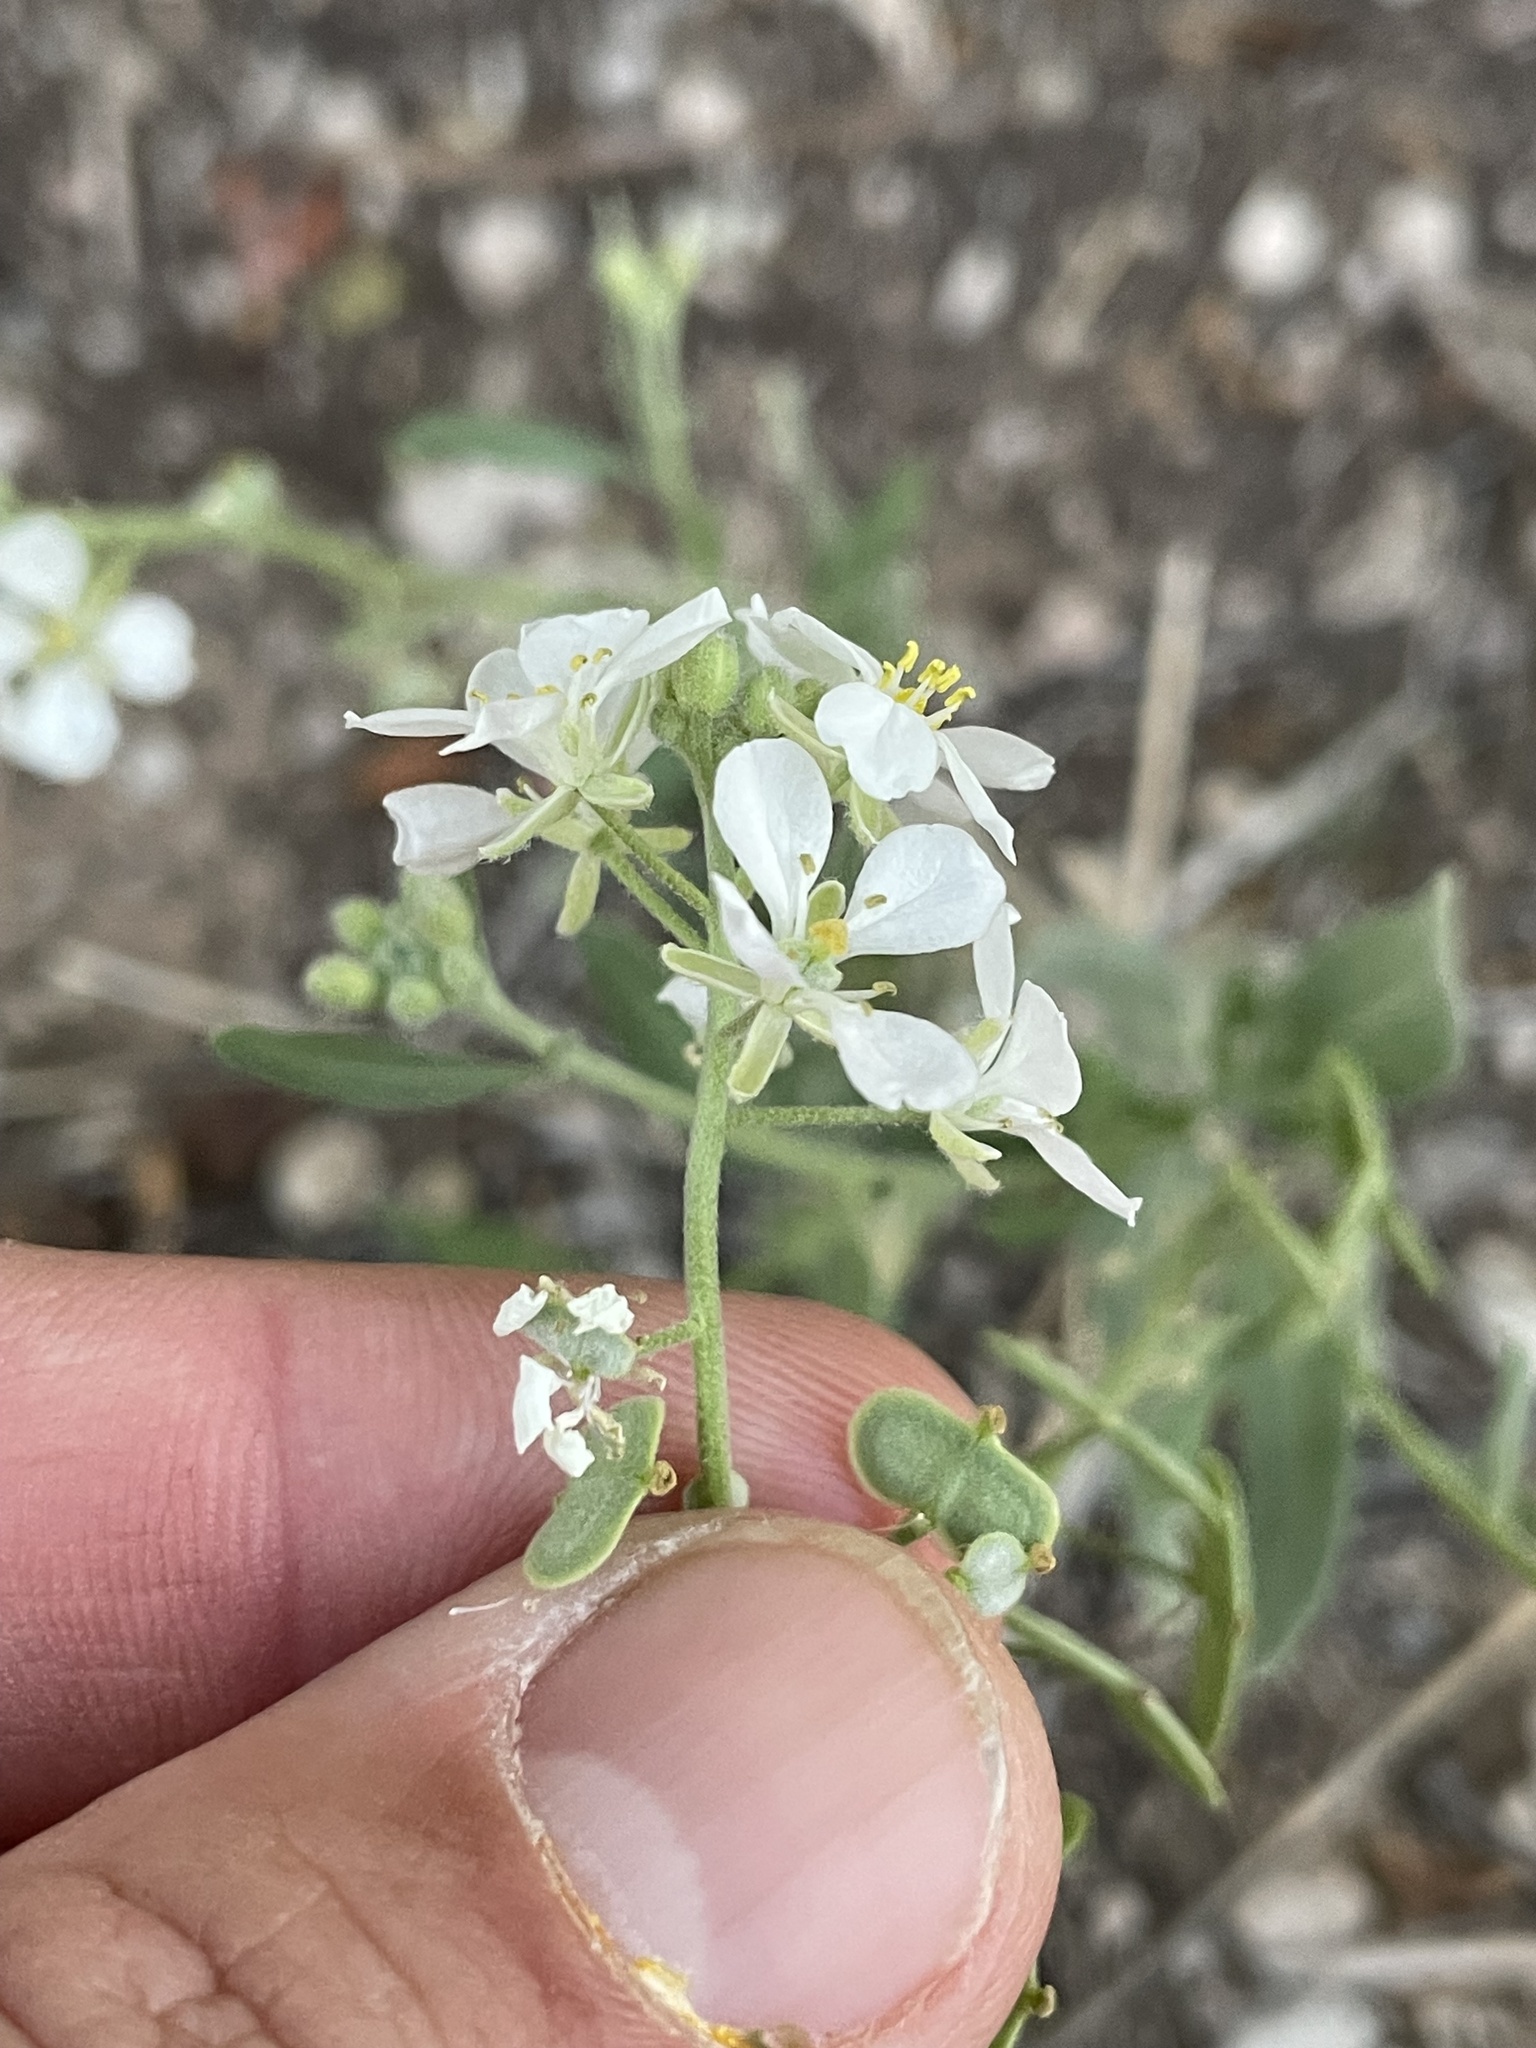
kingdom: Plantae
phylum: Tracheophyta
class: Magnoliopsida
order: Brassicales
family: Brassicaceae
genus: Dimorphocarpa
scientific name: Dimorphocarpa wislizenii
